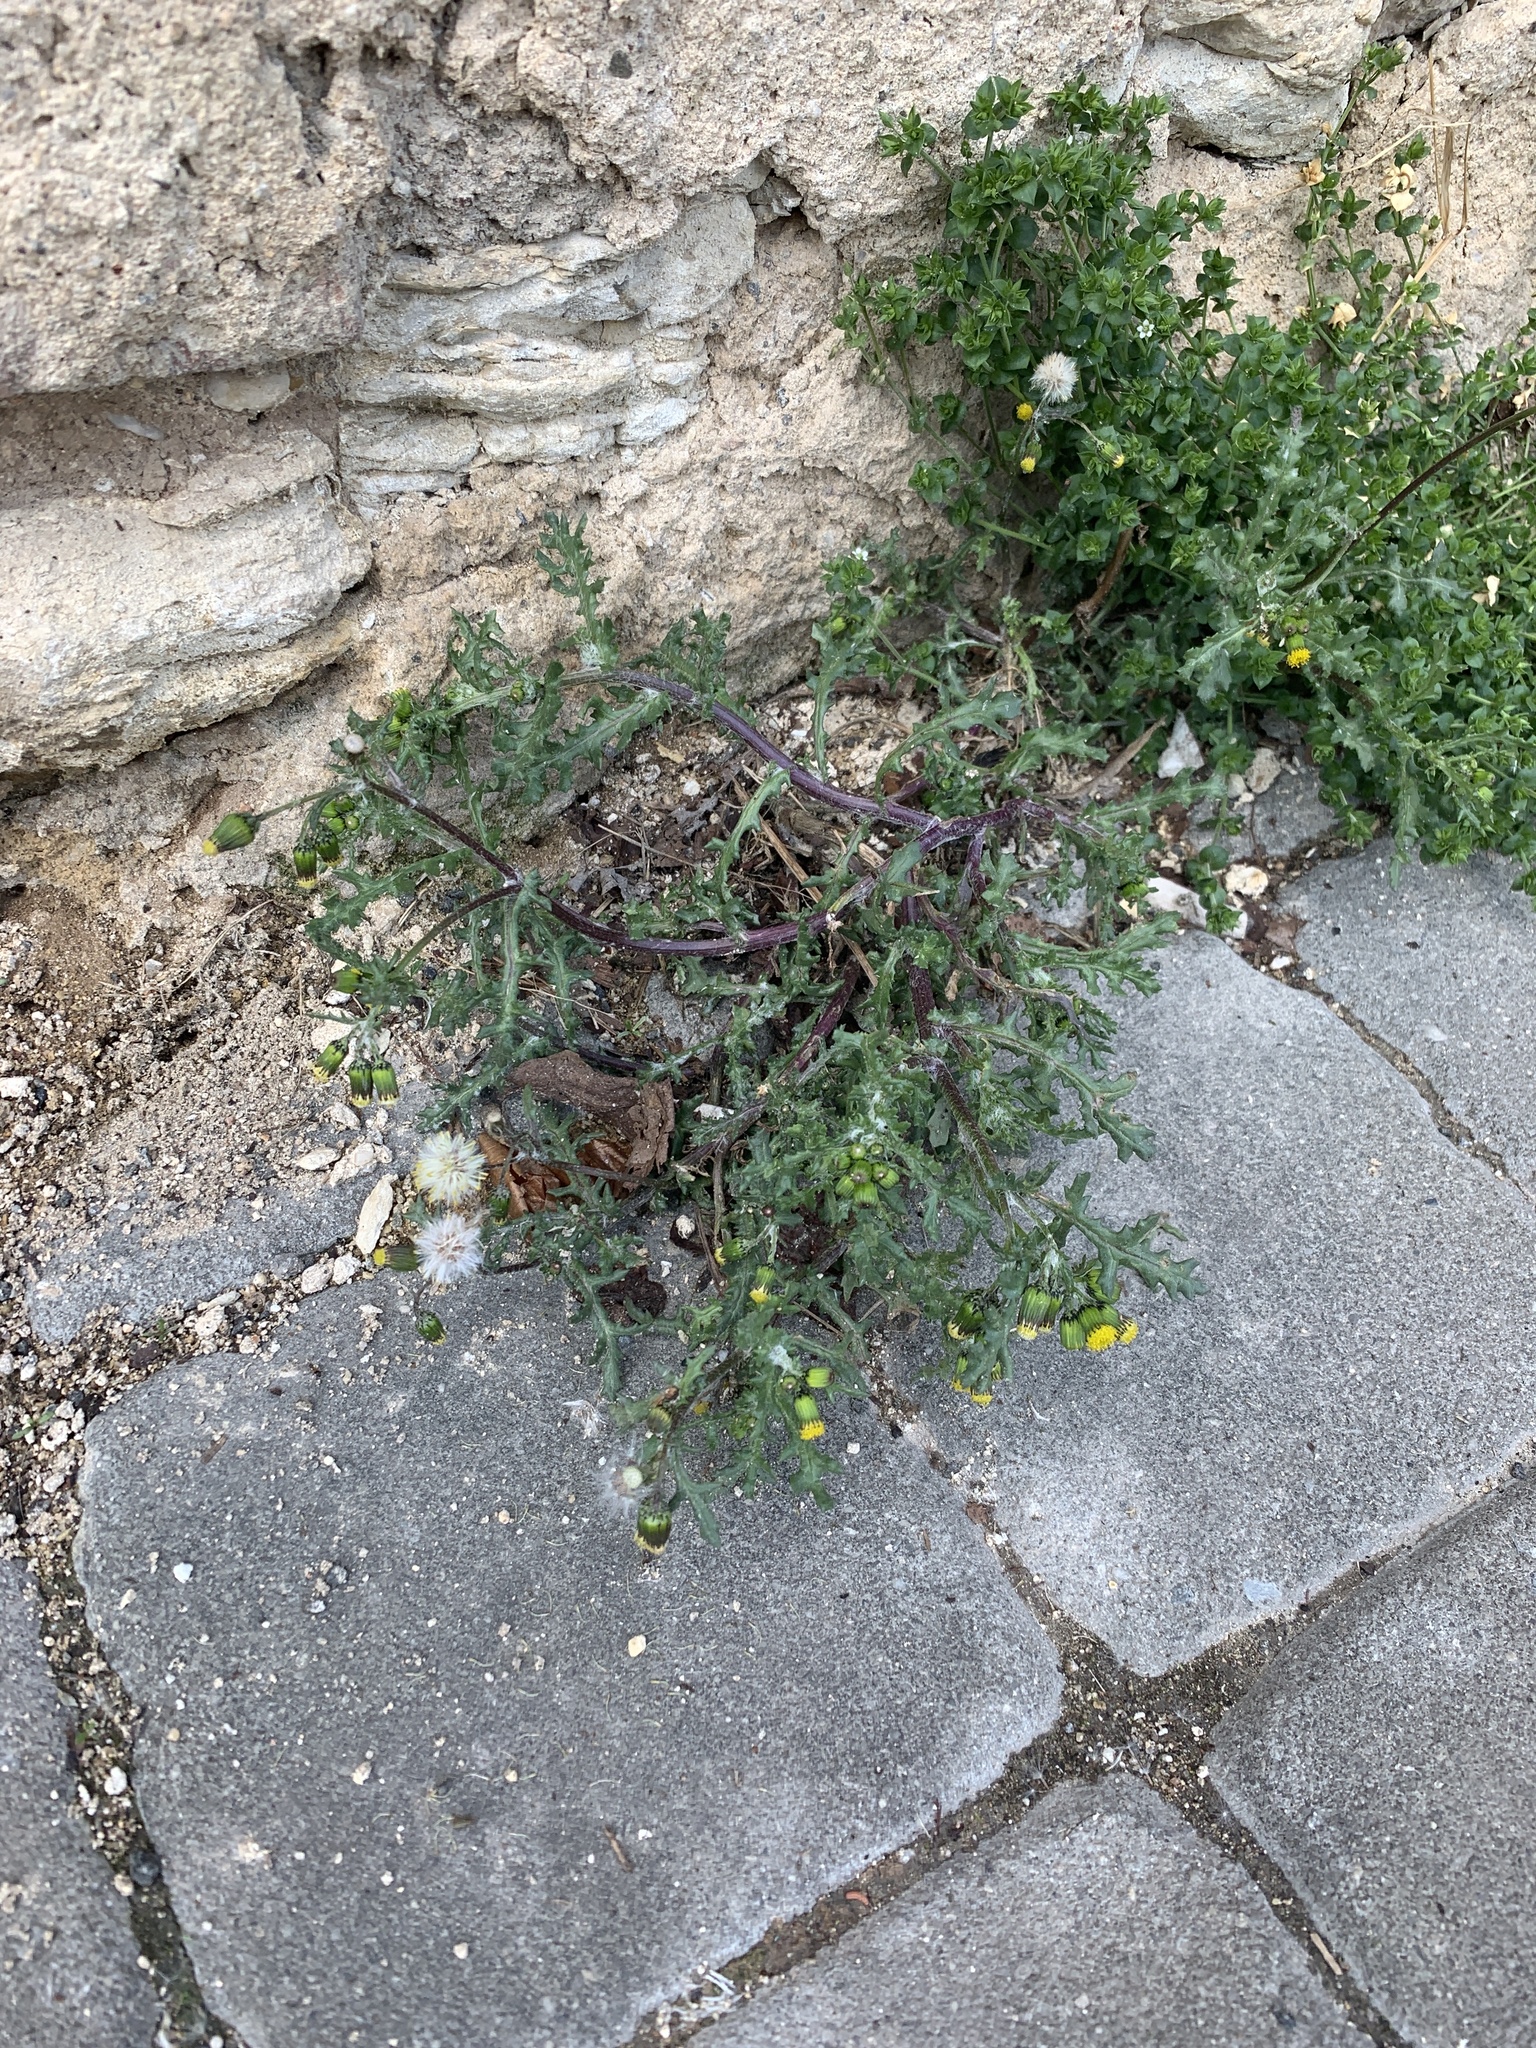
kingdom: Plantae
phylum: Tracheophyta
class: Magnoliopsida
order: Asterales
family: Asteraceae
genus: Senecio
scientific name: Senecio vulgaris
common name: Old-man-in-the-spring
